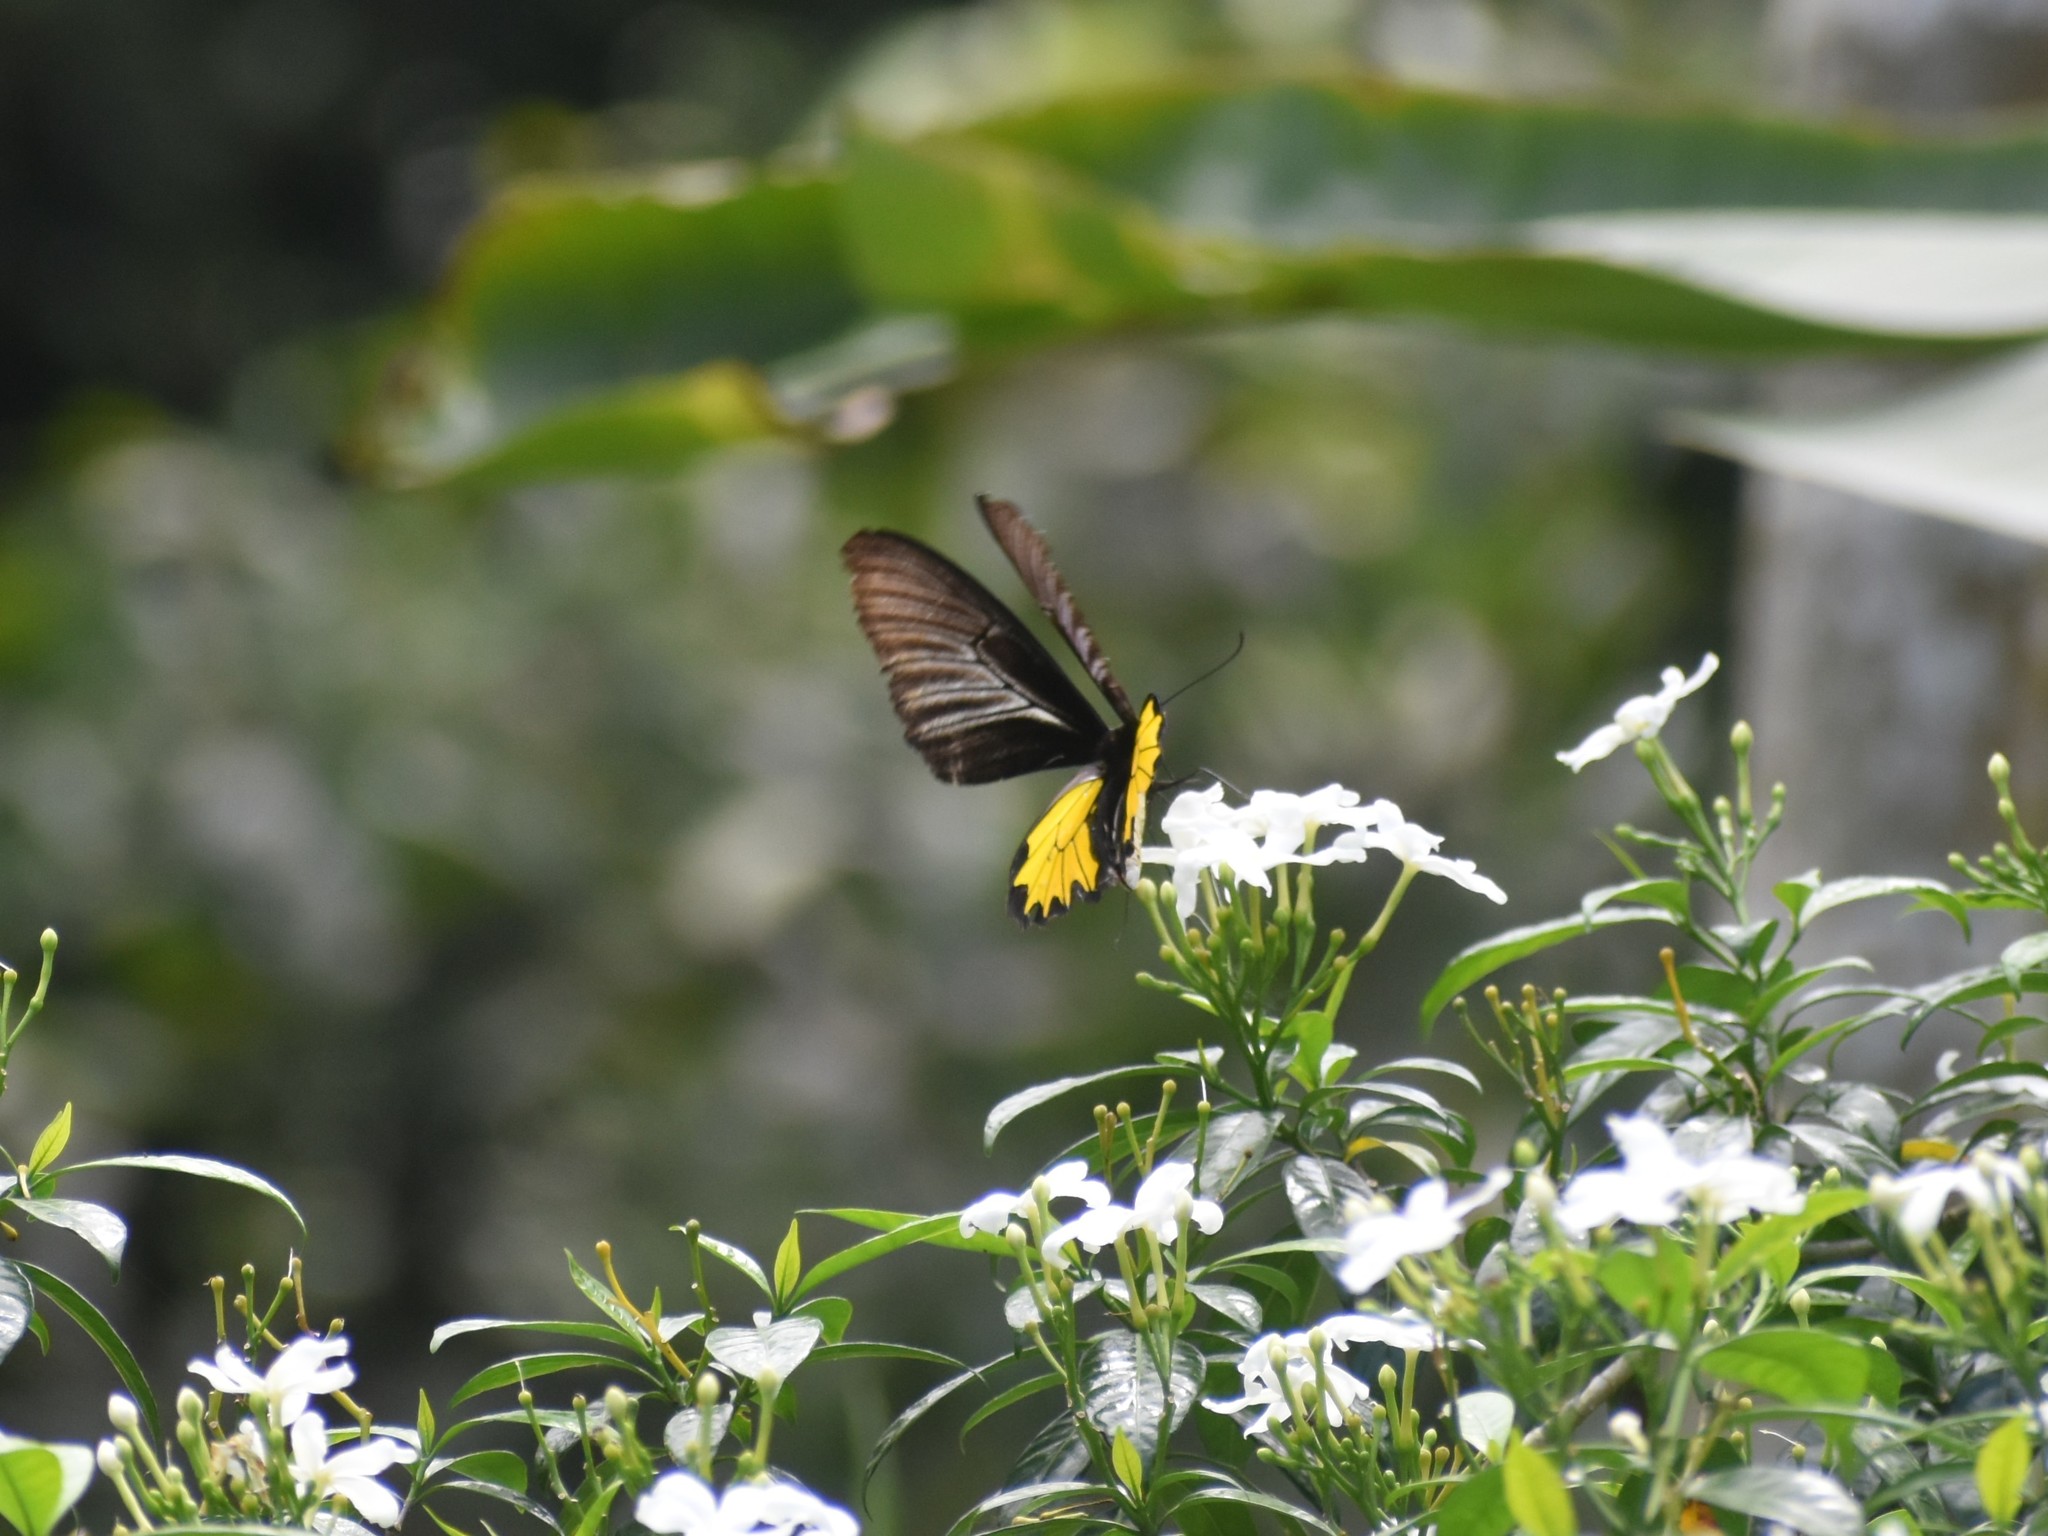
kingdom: Animalia
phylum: Arthropoda
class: Insecta
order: Lepidoptera
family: Papilionidae
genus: Troides
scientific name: Troides minos
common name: Malabar birdwing
